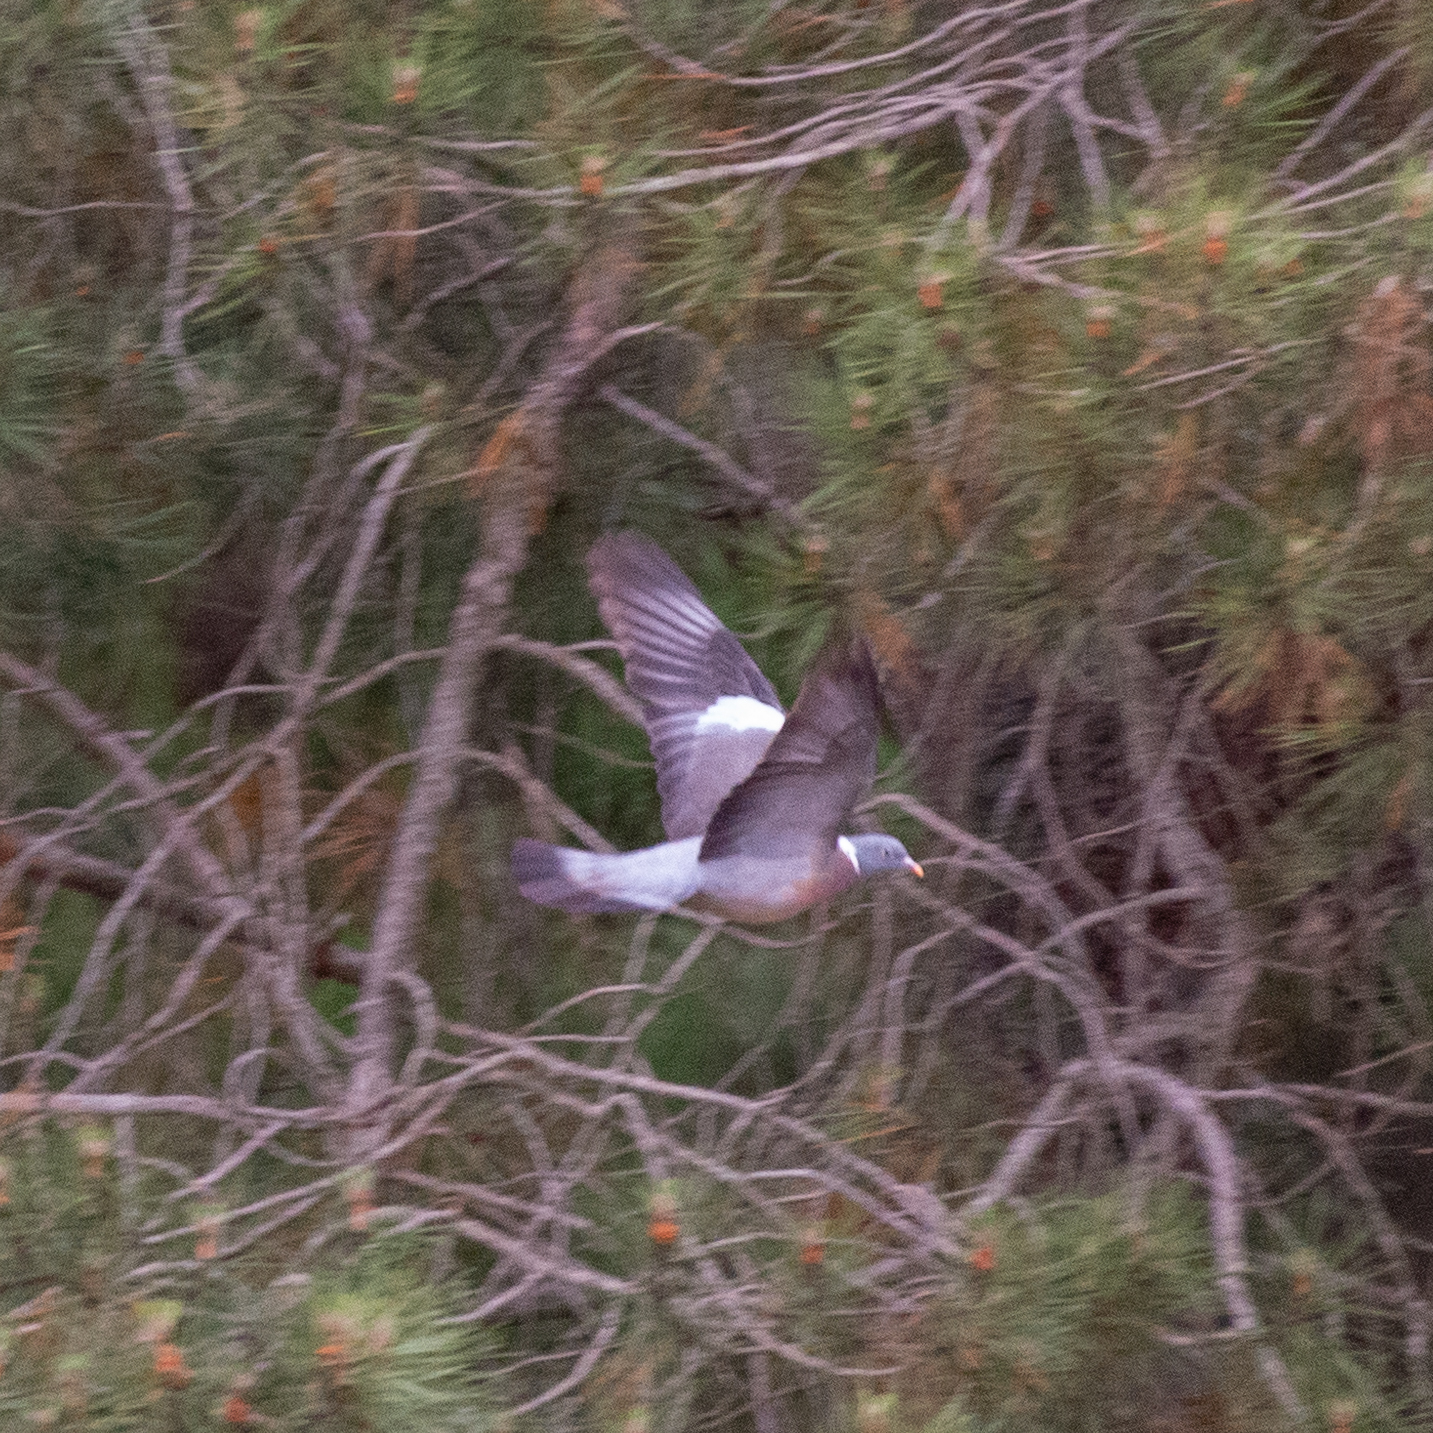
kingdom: Animalia
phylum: Chordata
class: Aves
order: Columbiformes
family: Columbidae
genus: Columba
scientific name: Columba palumbus
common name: Common wood pigeon
